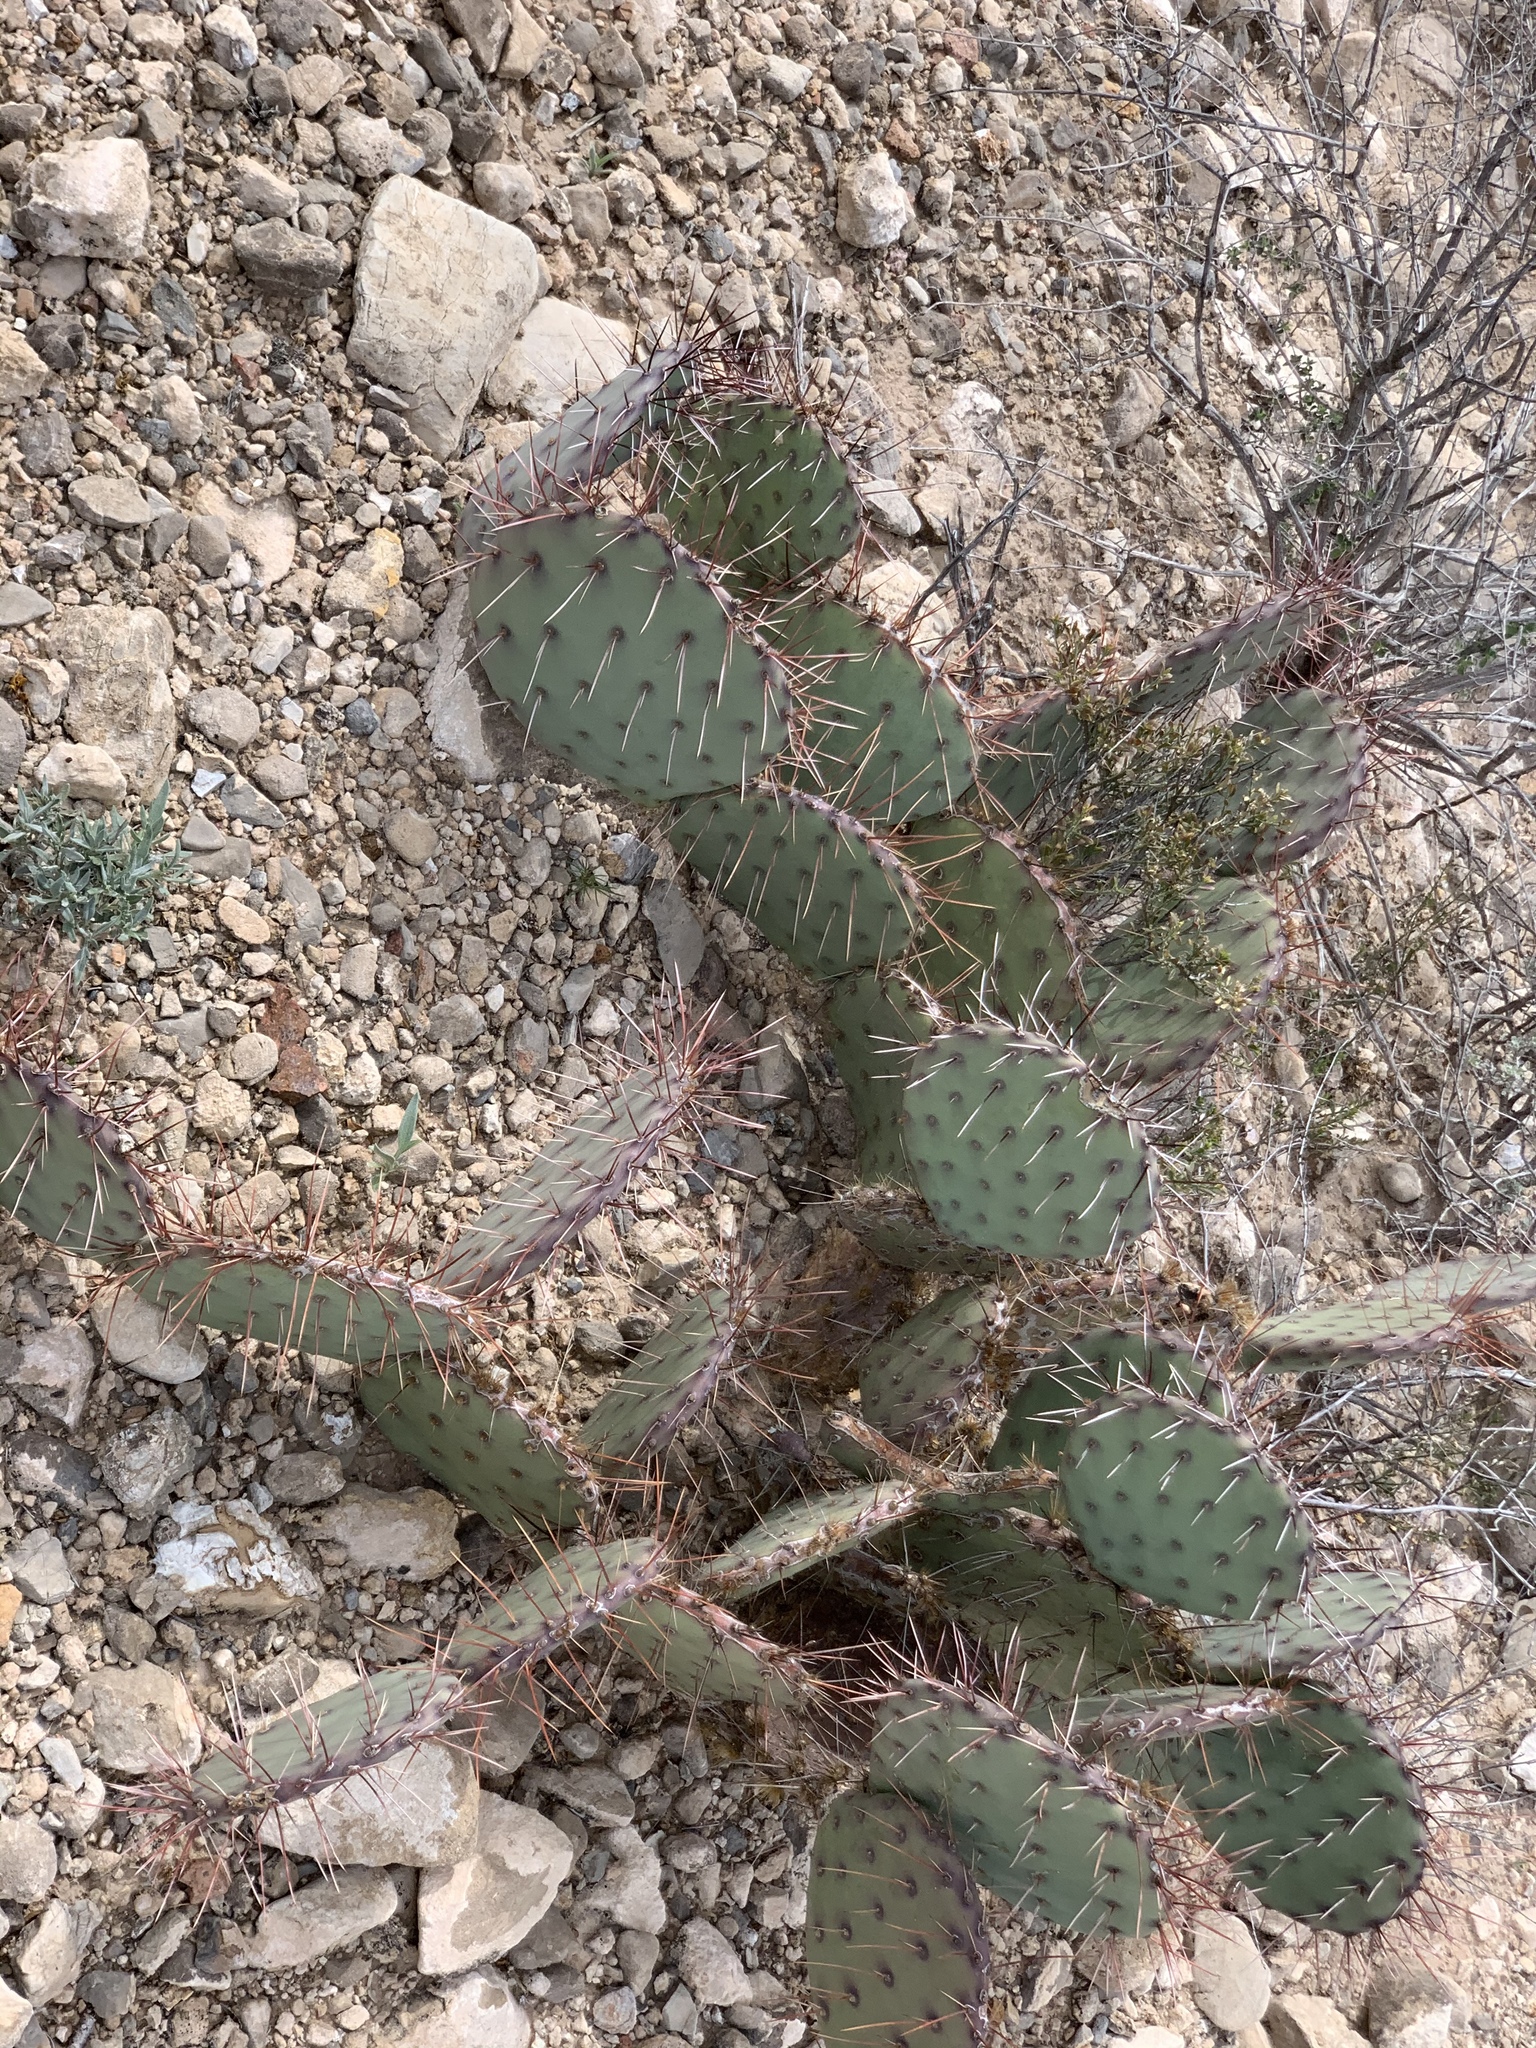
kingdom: Plantae
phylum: Tracheophyta
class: Magnoliopsida
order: Caryophyllales
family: Cactaceae
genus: Opuntia
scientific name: Opuntia phaeacantha
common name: New mexico prickly-pear
